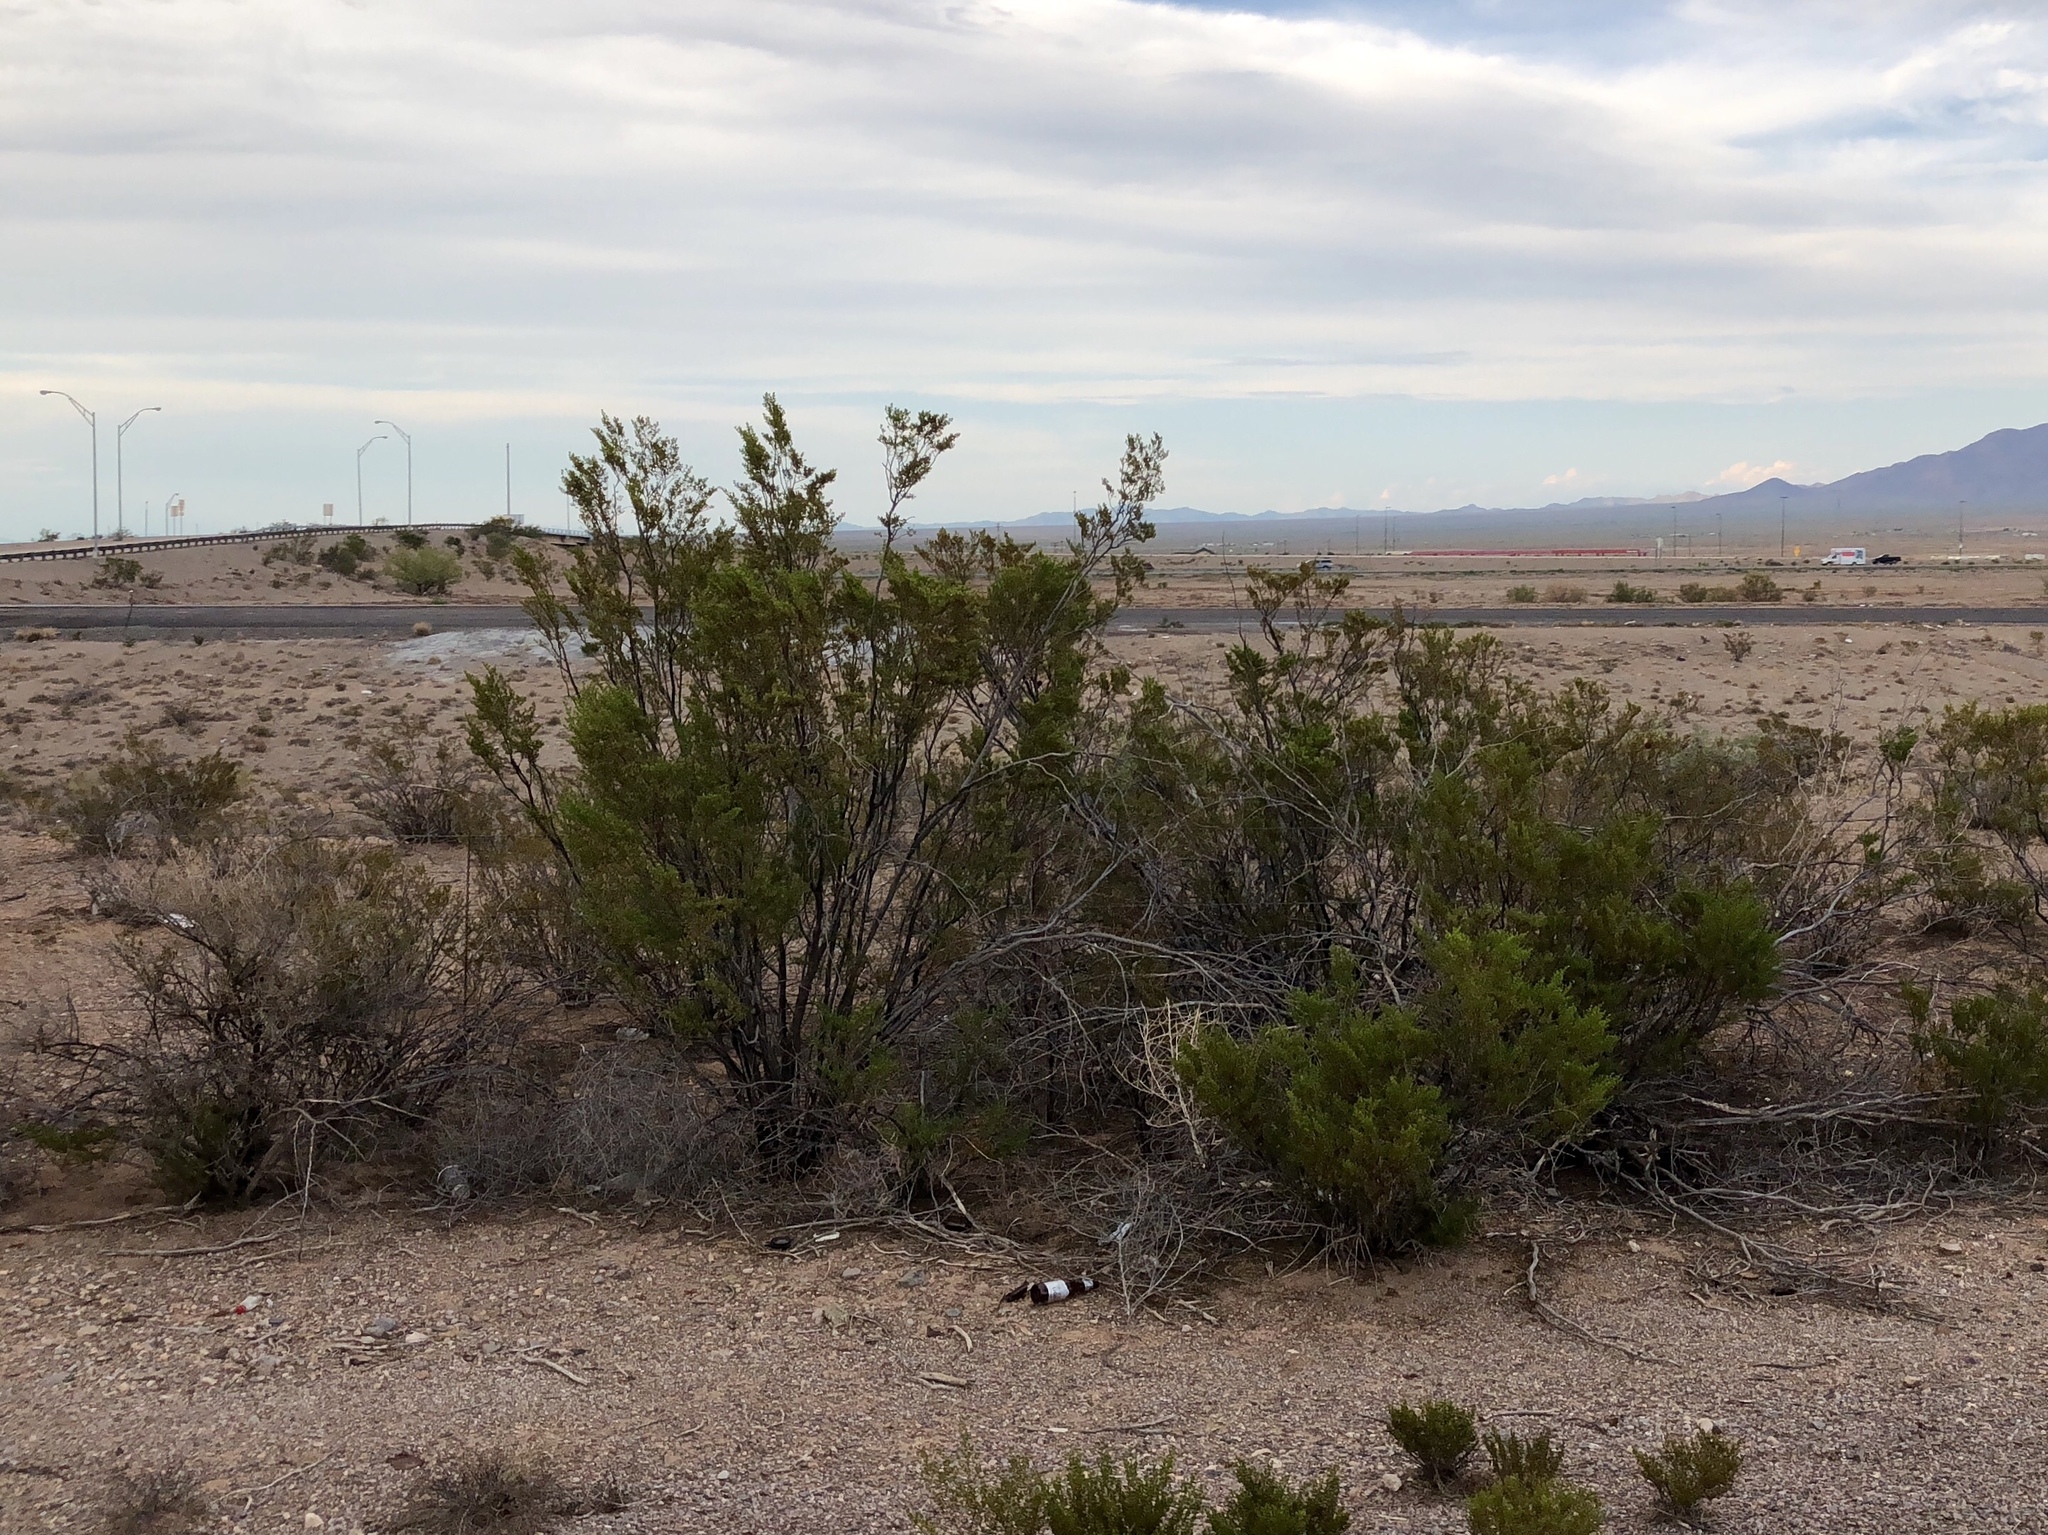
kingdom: Plantae
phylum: Tracheophyta
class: Magnoliopsida
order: Zygophyllales
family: Zygophyllaceae
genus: Larrea
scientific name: Larrea tridentata
